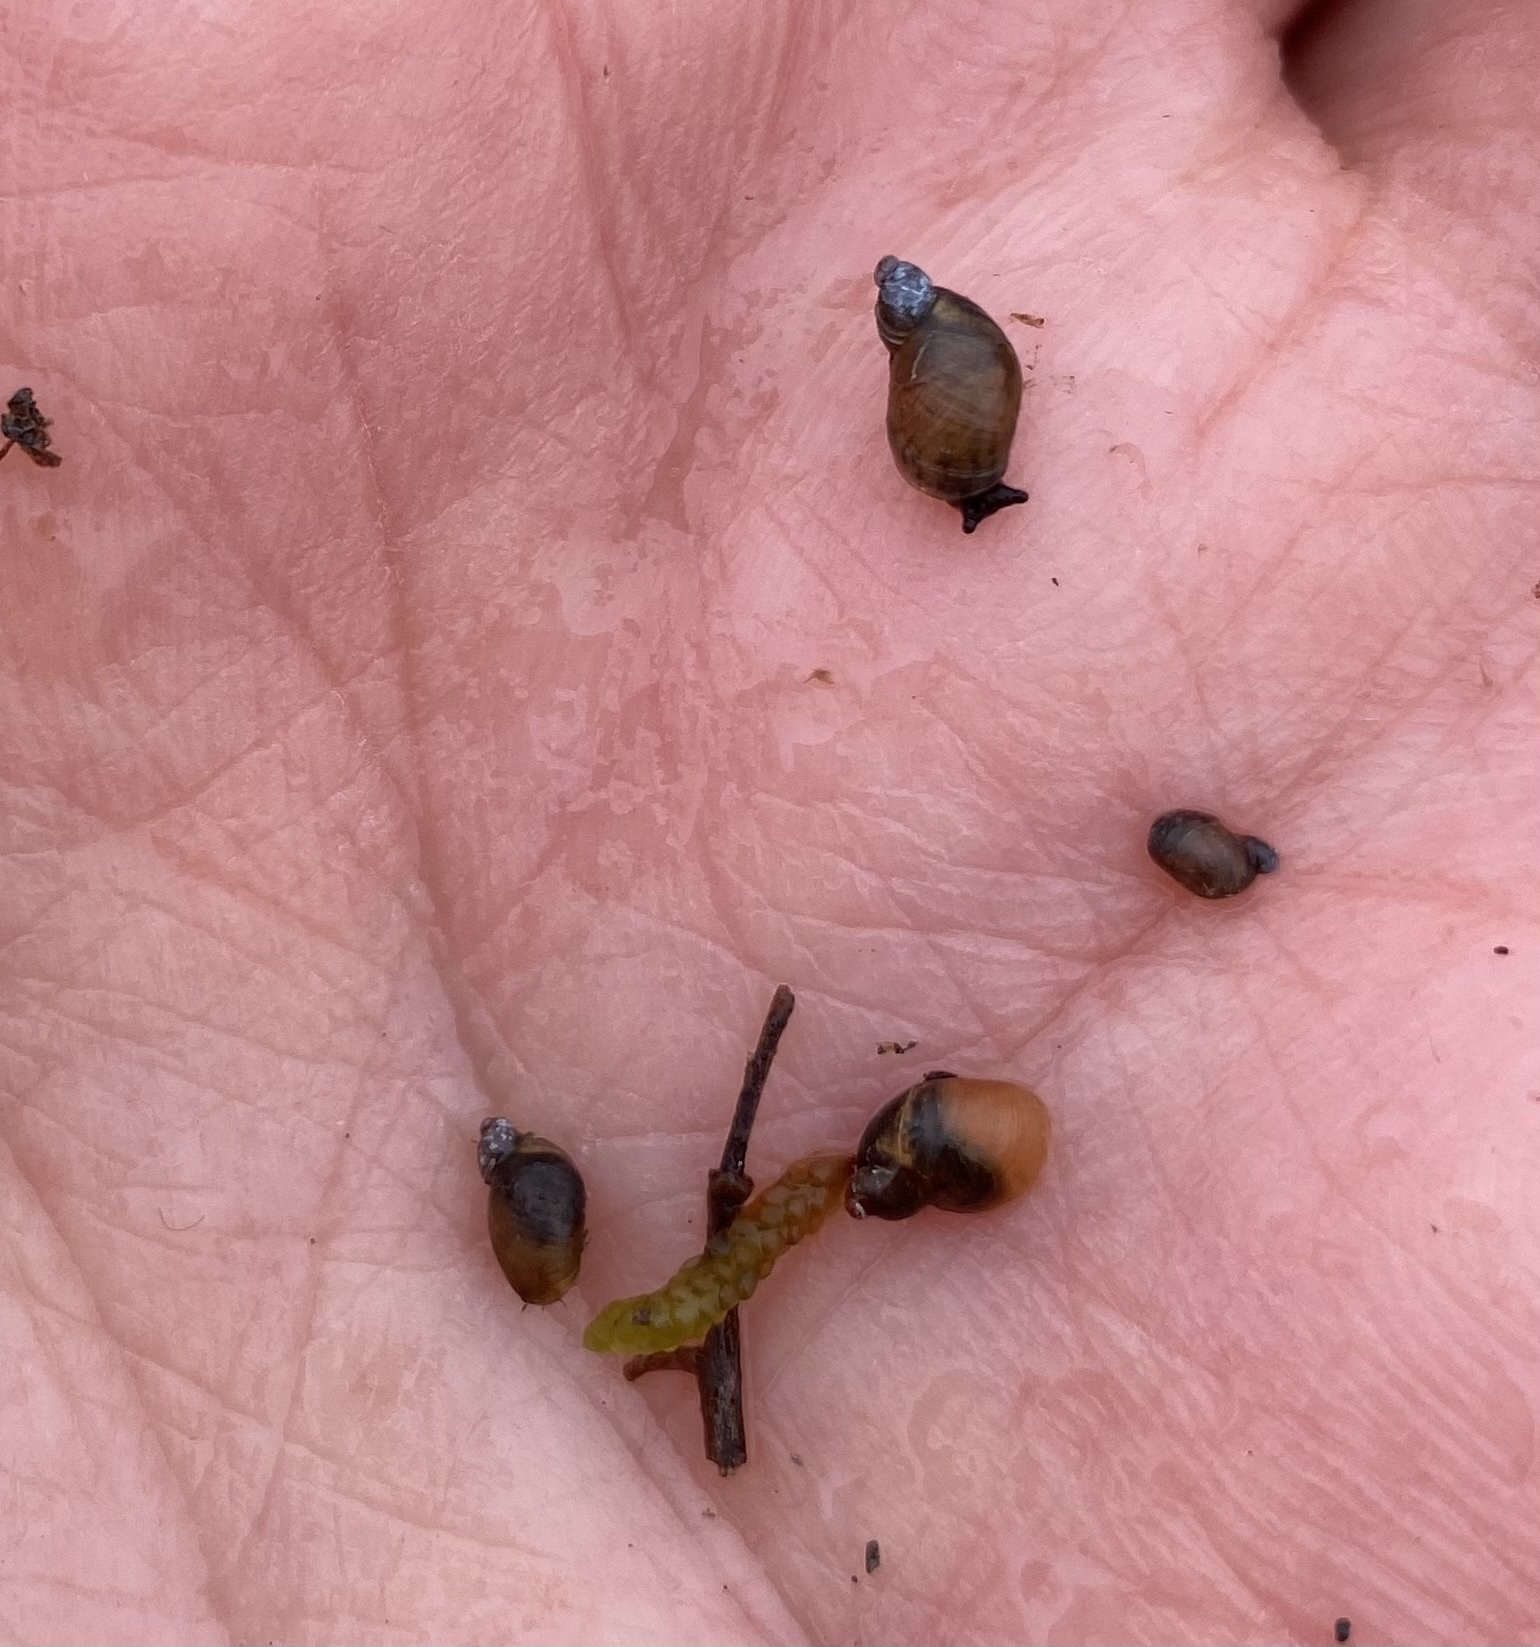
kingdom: Animalia
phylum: Mollusca
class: Gastropoda
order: Stylommatophora
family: Succineidae
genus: Succinella
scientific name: Succinella oblonga
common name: Small amber snail
